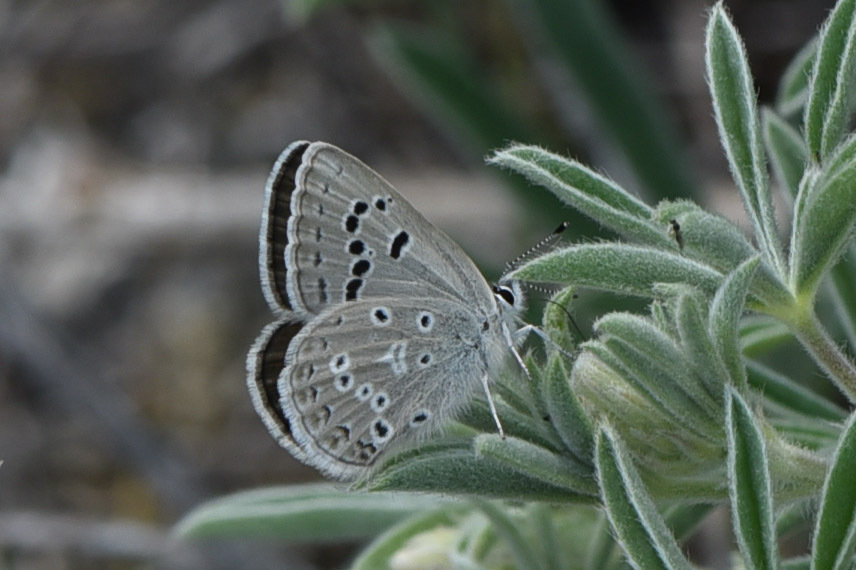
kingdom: Animalia
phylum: Arthropoda
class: Insecta
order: Lepidoptera
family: Lycaenidae
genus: Icaricia
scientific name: Icaricia icarioides
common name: Boisduval's blue
